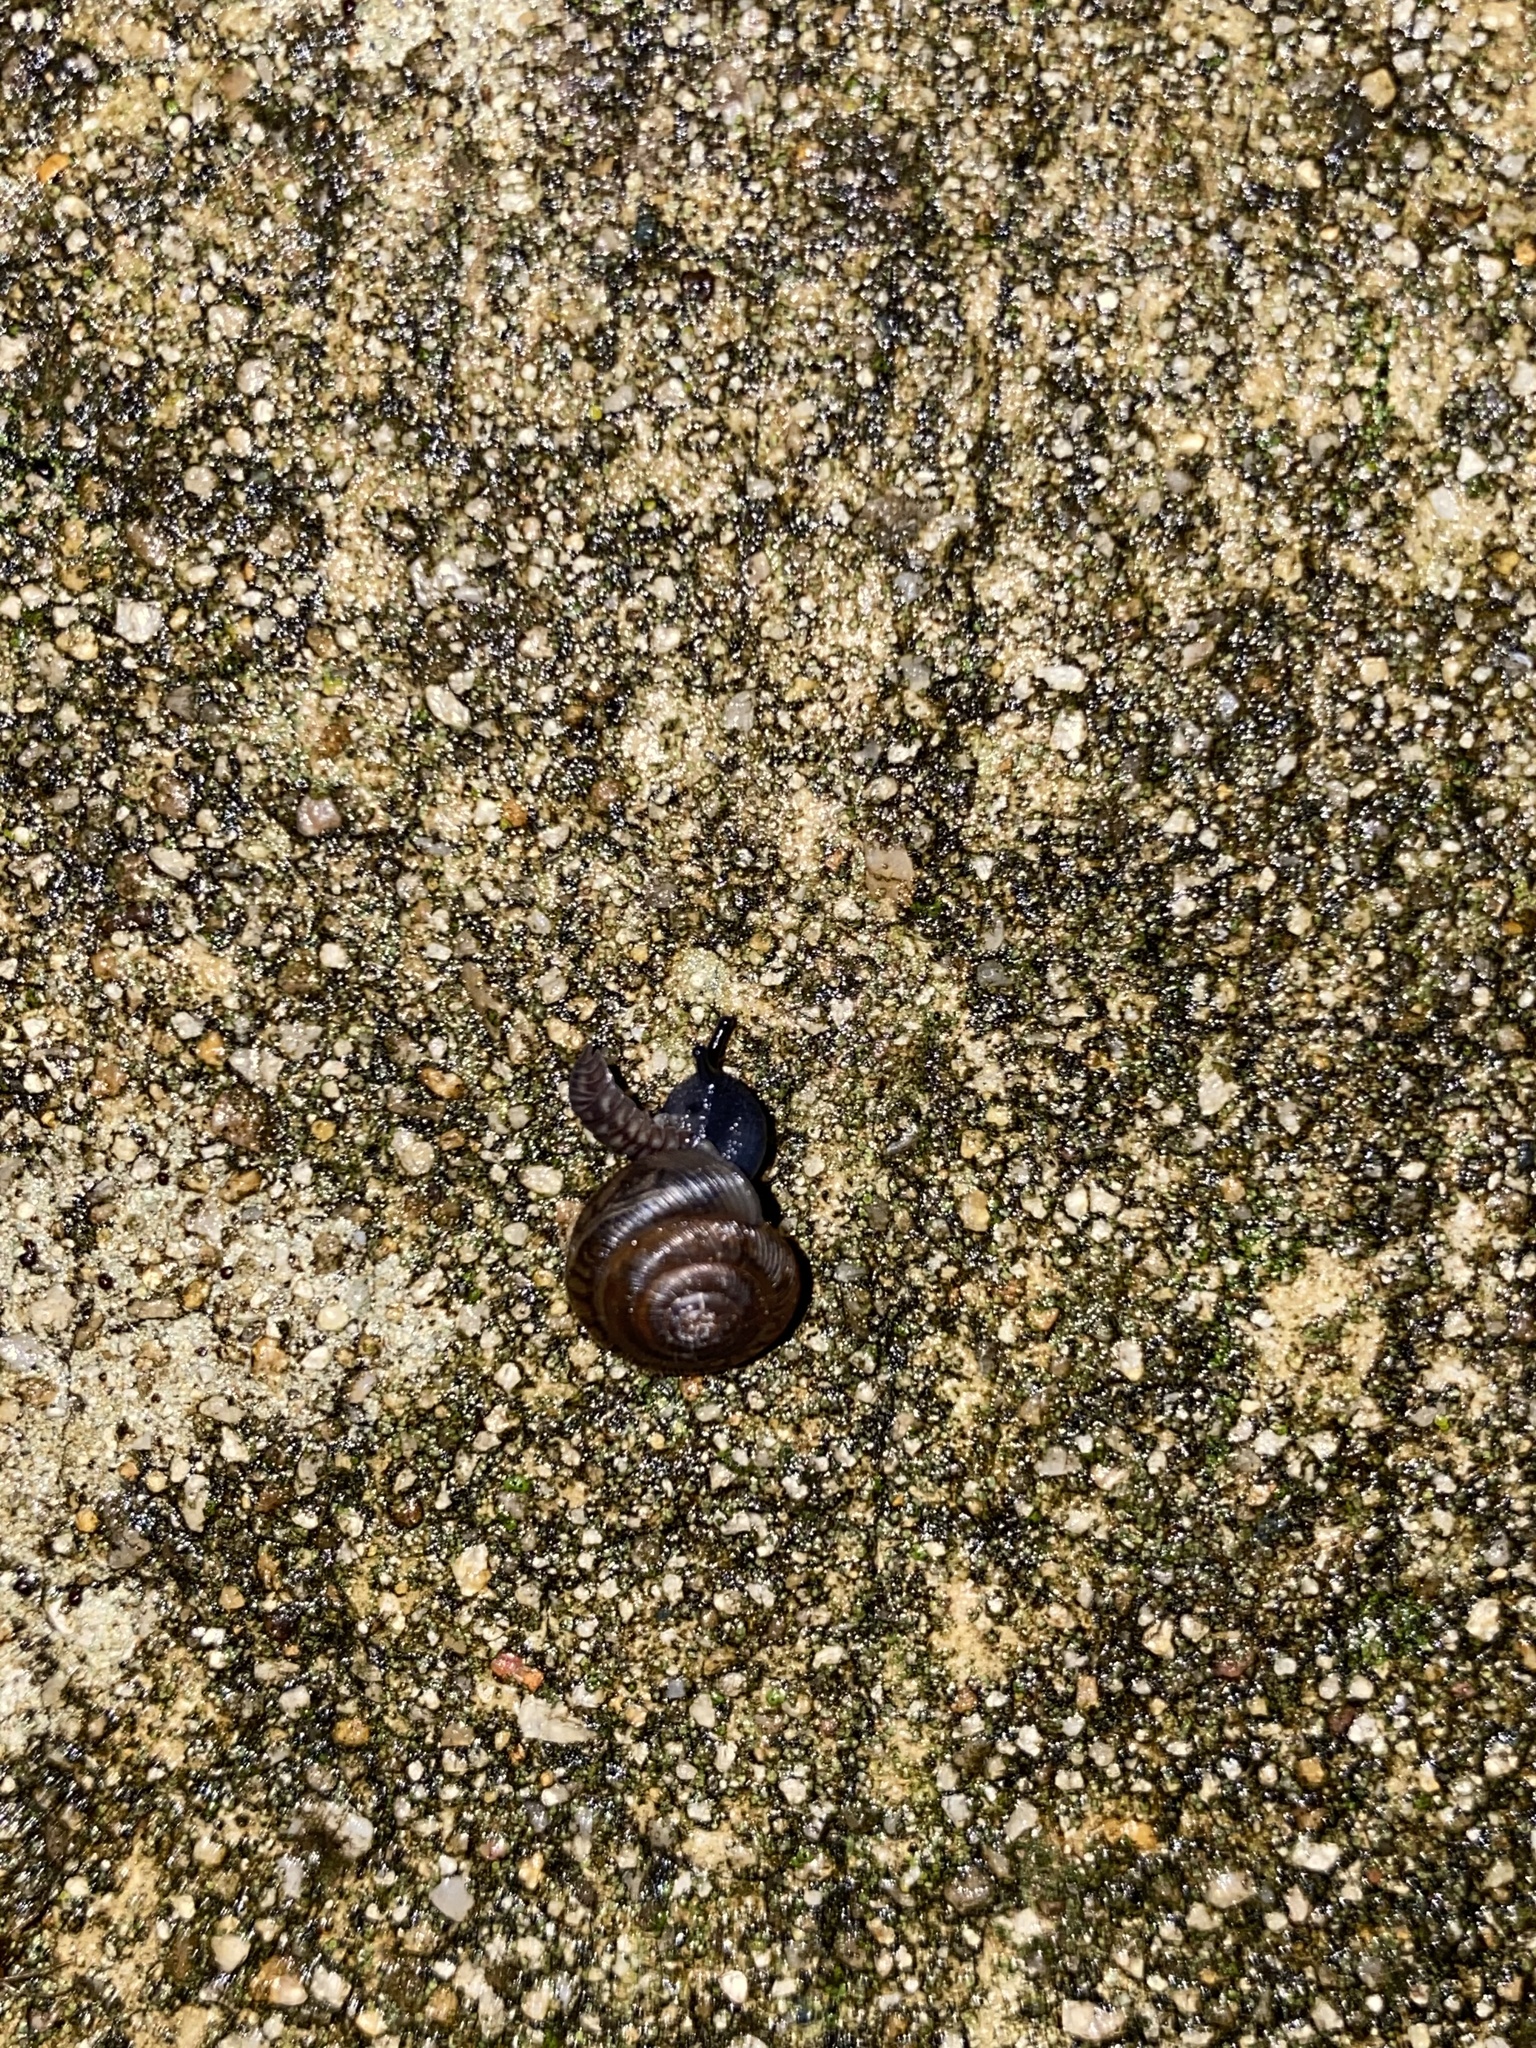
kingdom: Animalia
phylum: Arthropoda
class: Malacostraca
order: Isopoda
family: Armadillidiidae
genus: Armadillidium
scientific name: Armadillidium nasatum
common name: Isopod
